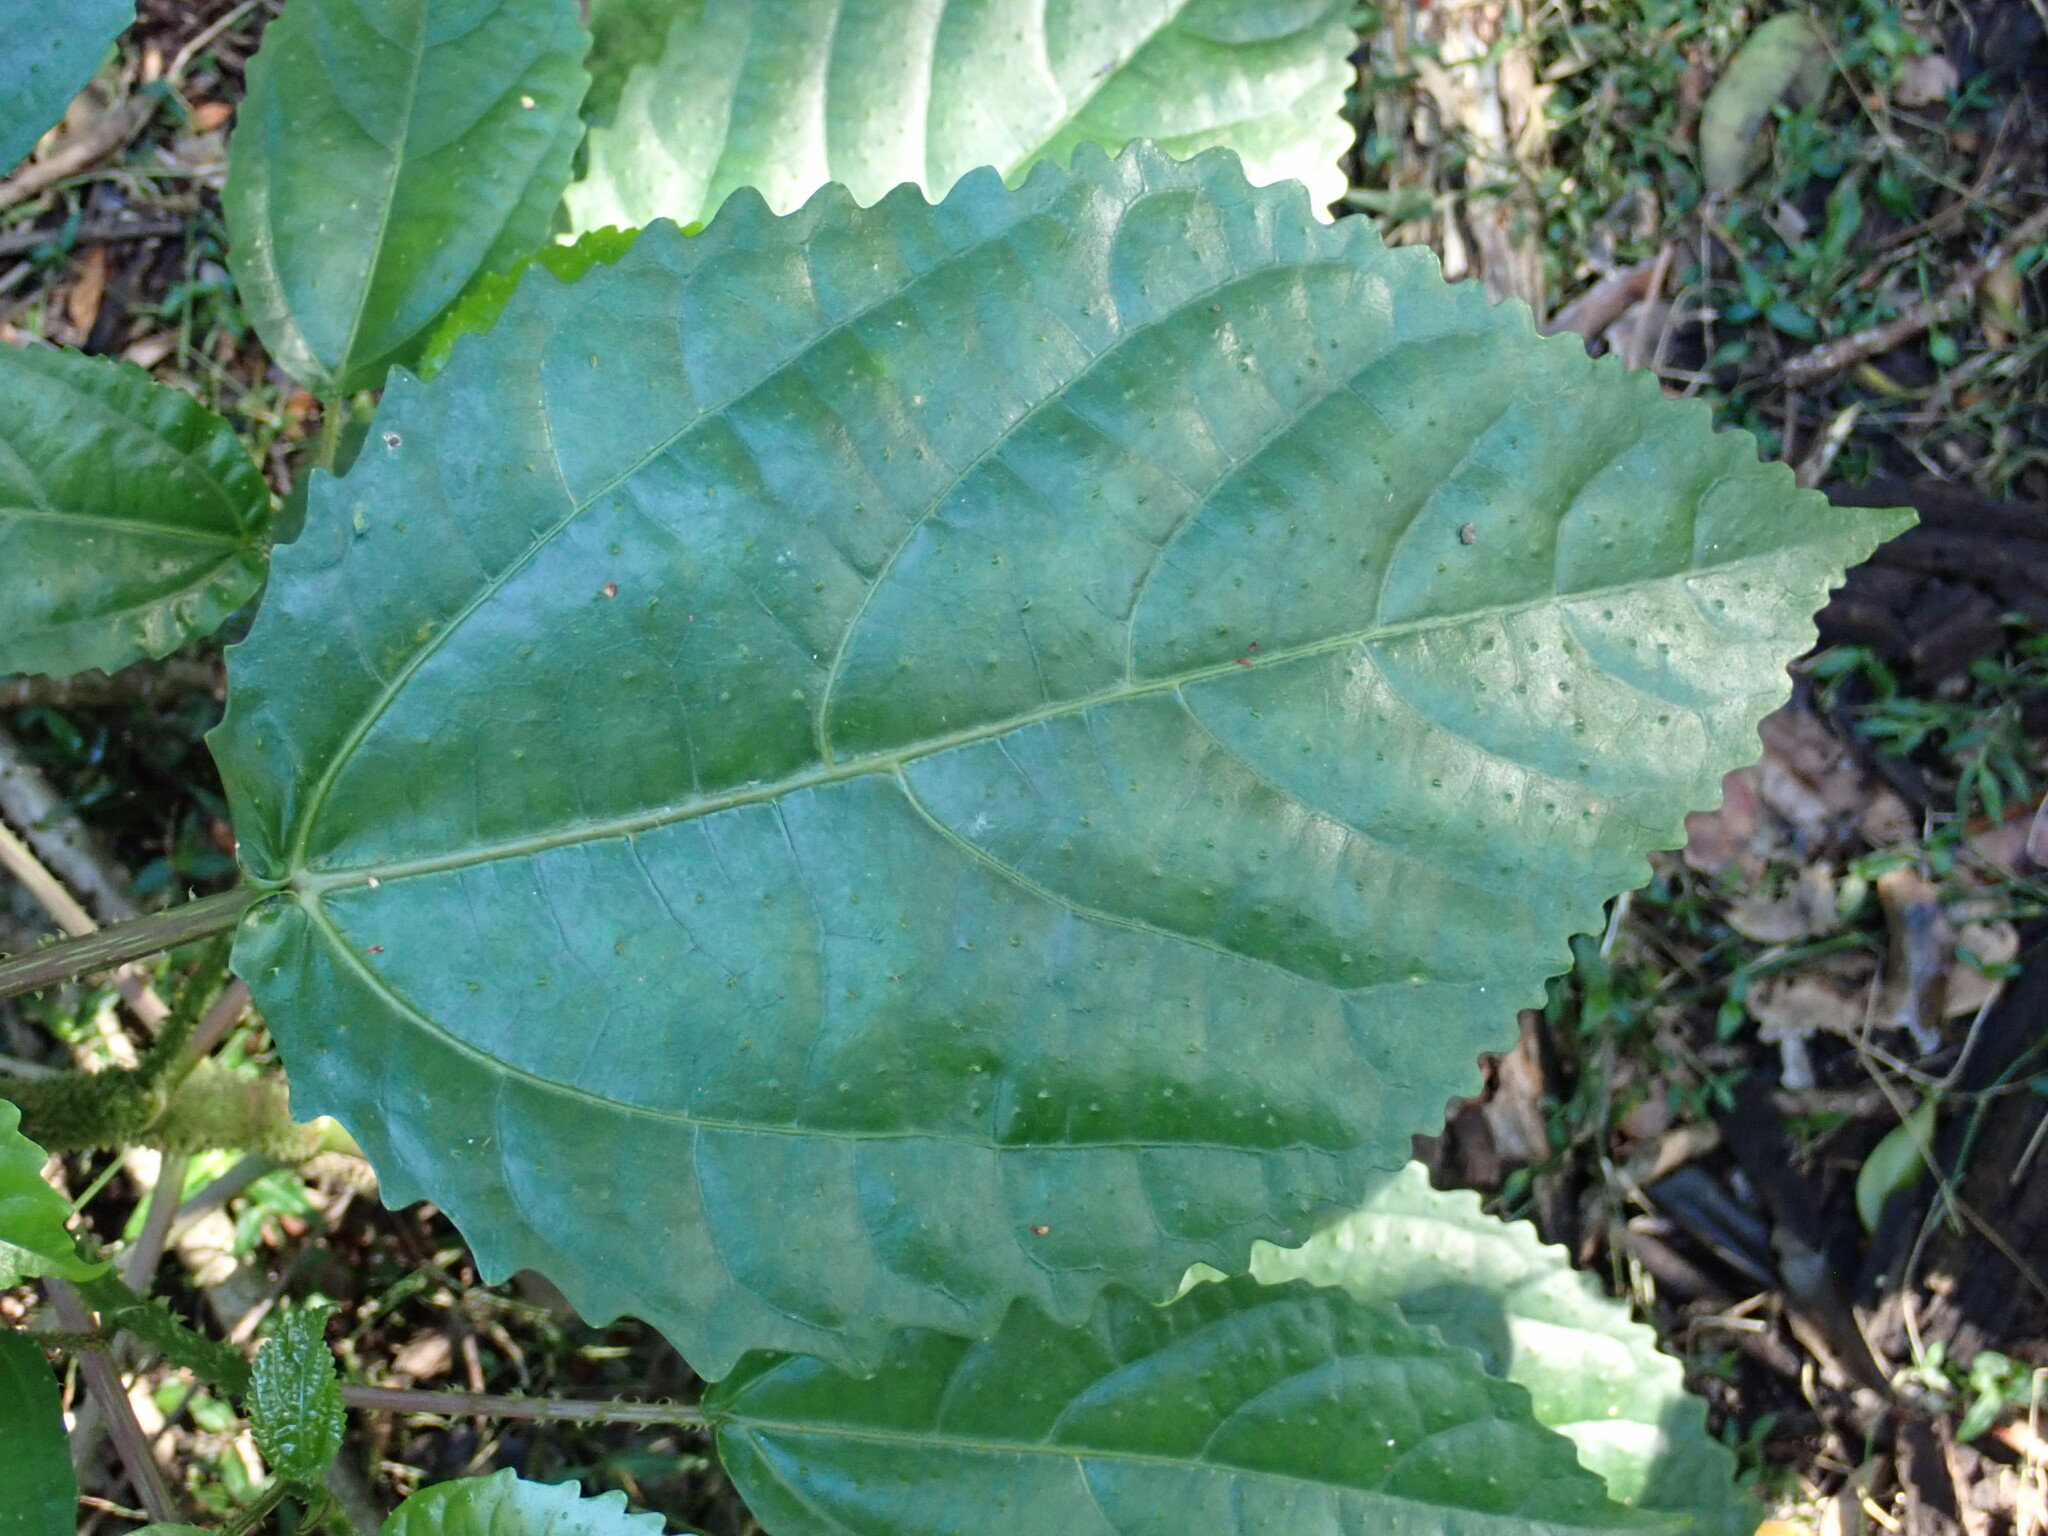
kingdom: Plantae
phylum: Tracheophyta
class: Magnoliopsida
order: Rosales
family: Urticaceae
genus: Dendrocnide
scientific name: Dendrocnide photiniphylla
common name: Shiny-leaved stinging tree
